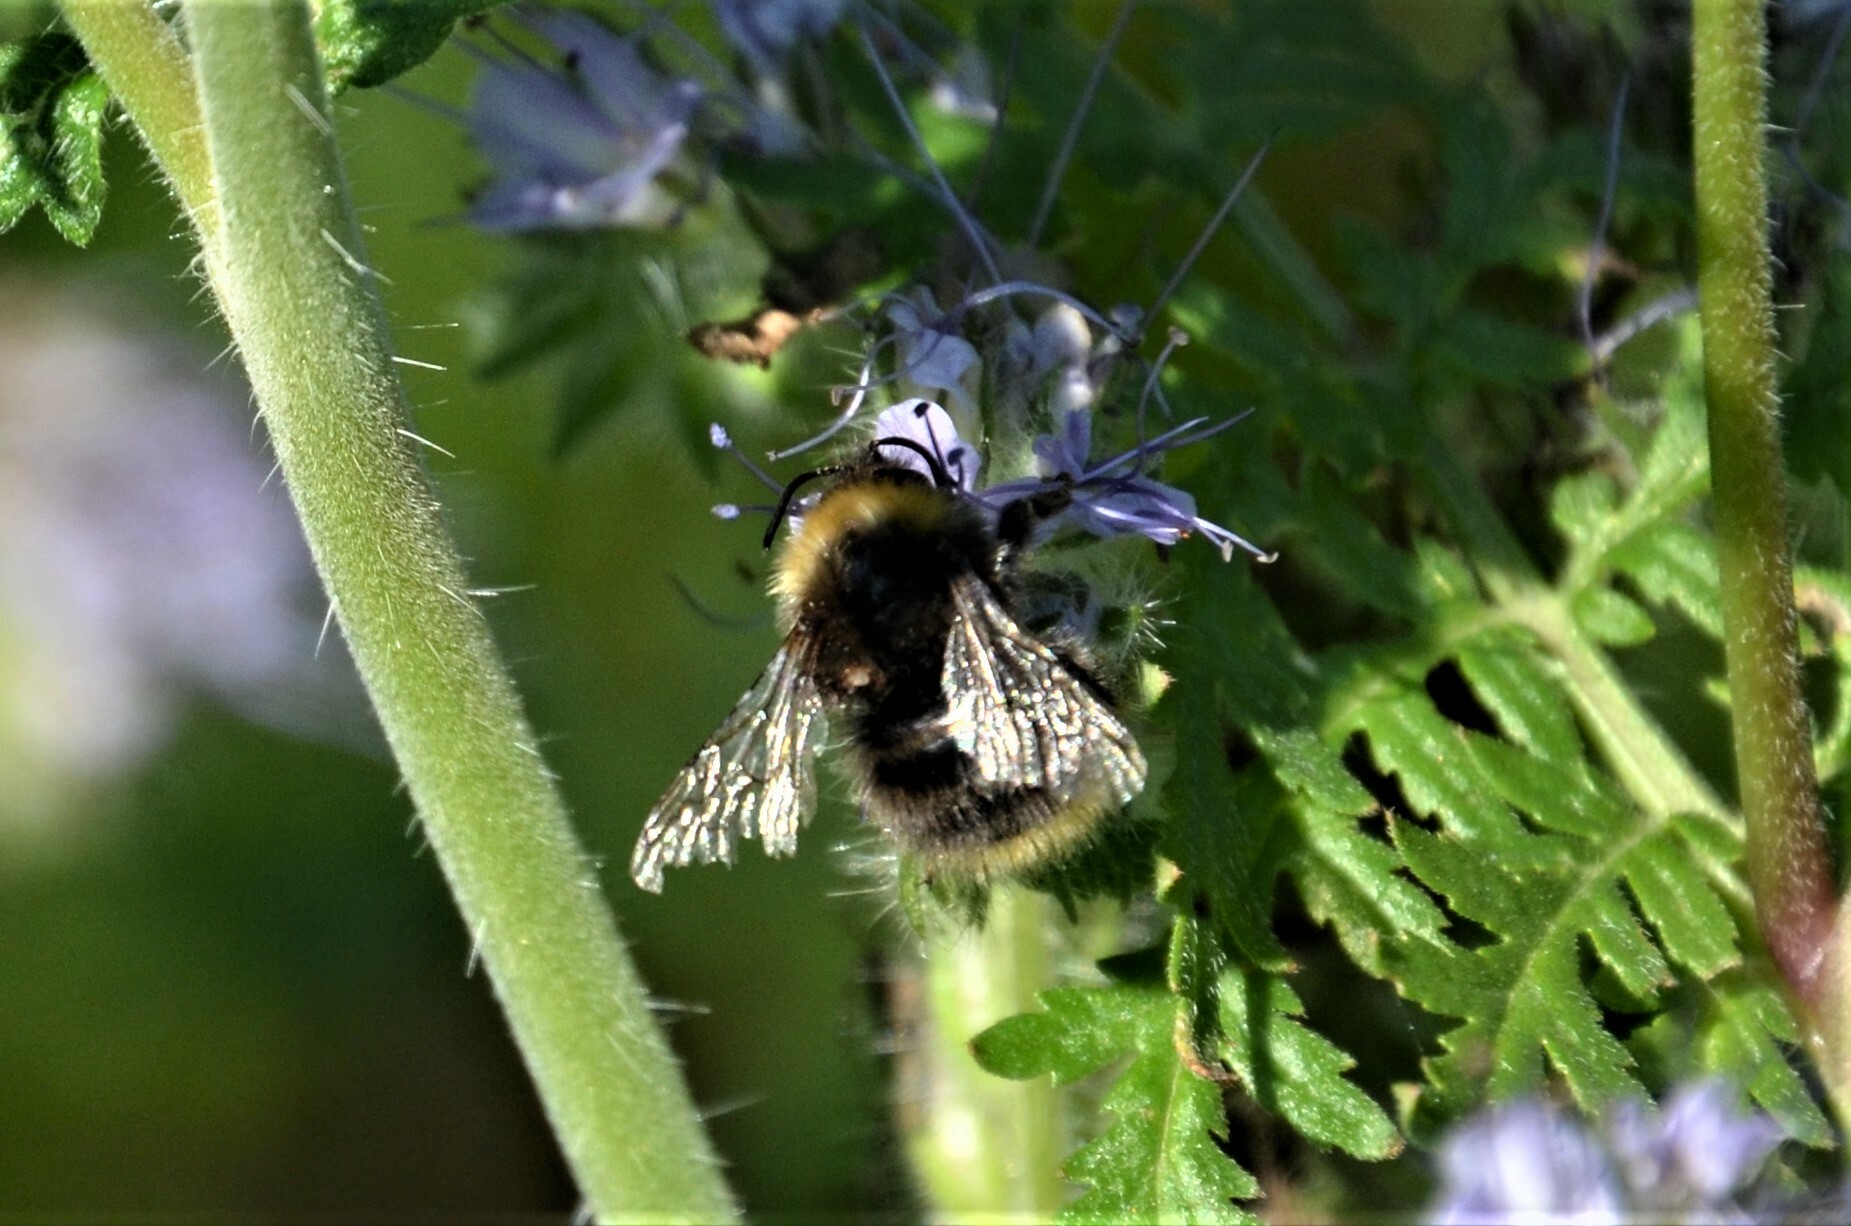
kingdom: Animalia
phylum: Arthropoda
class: Insecta
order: Hymenoptera
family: Apidae
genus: Bombus
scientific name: Bombus pratorum
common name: Early humble-bee
